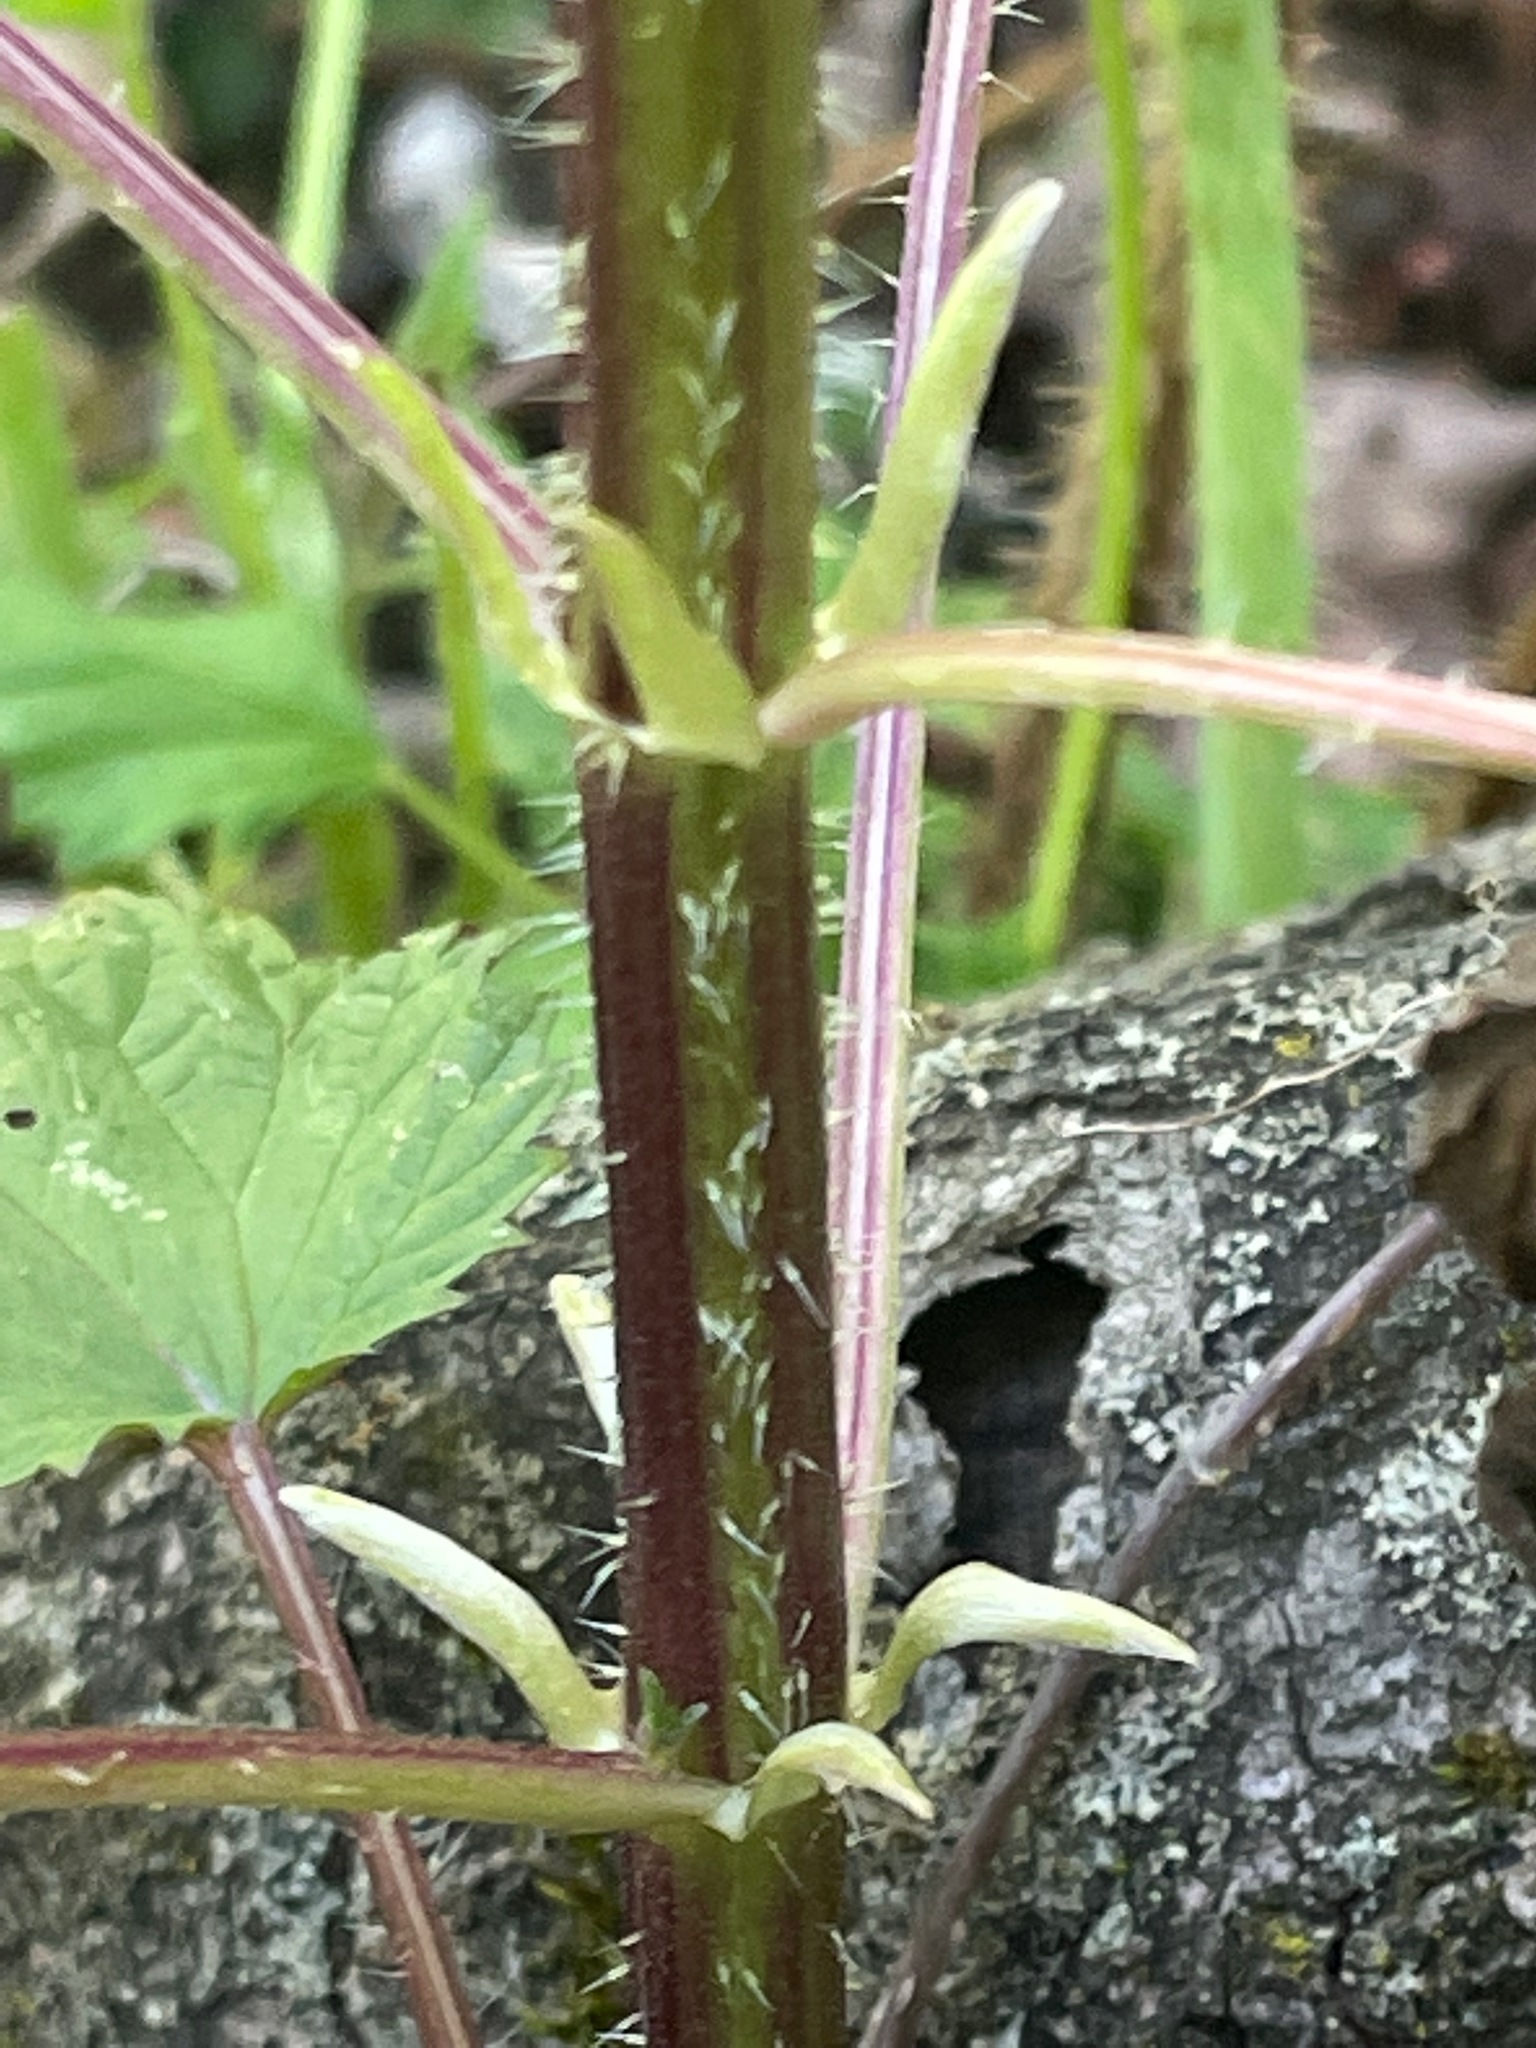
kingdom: Plantae
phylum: Tracheophyta
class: Magnoliopsida
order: Rosales
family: Urticaceae
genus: Urtica
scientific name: Urtica dioica
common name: Common nettle
